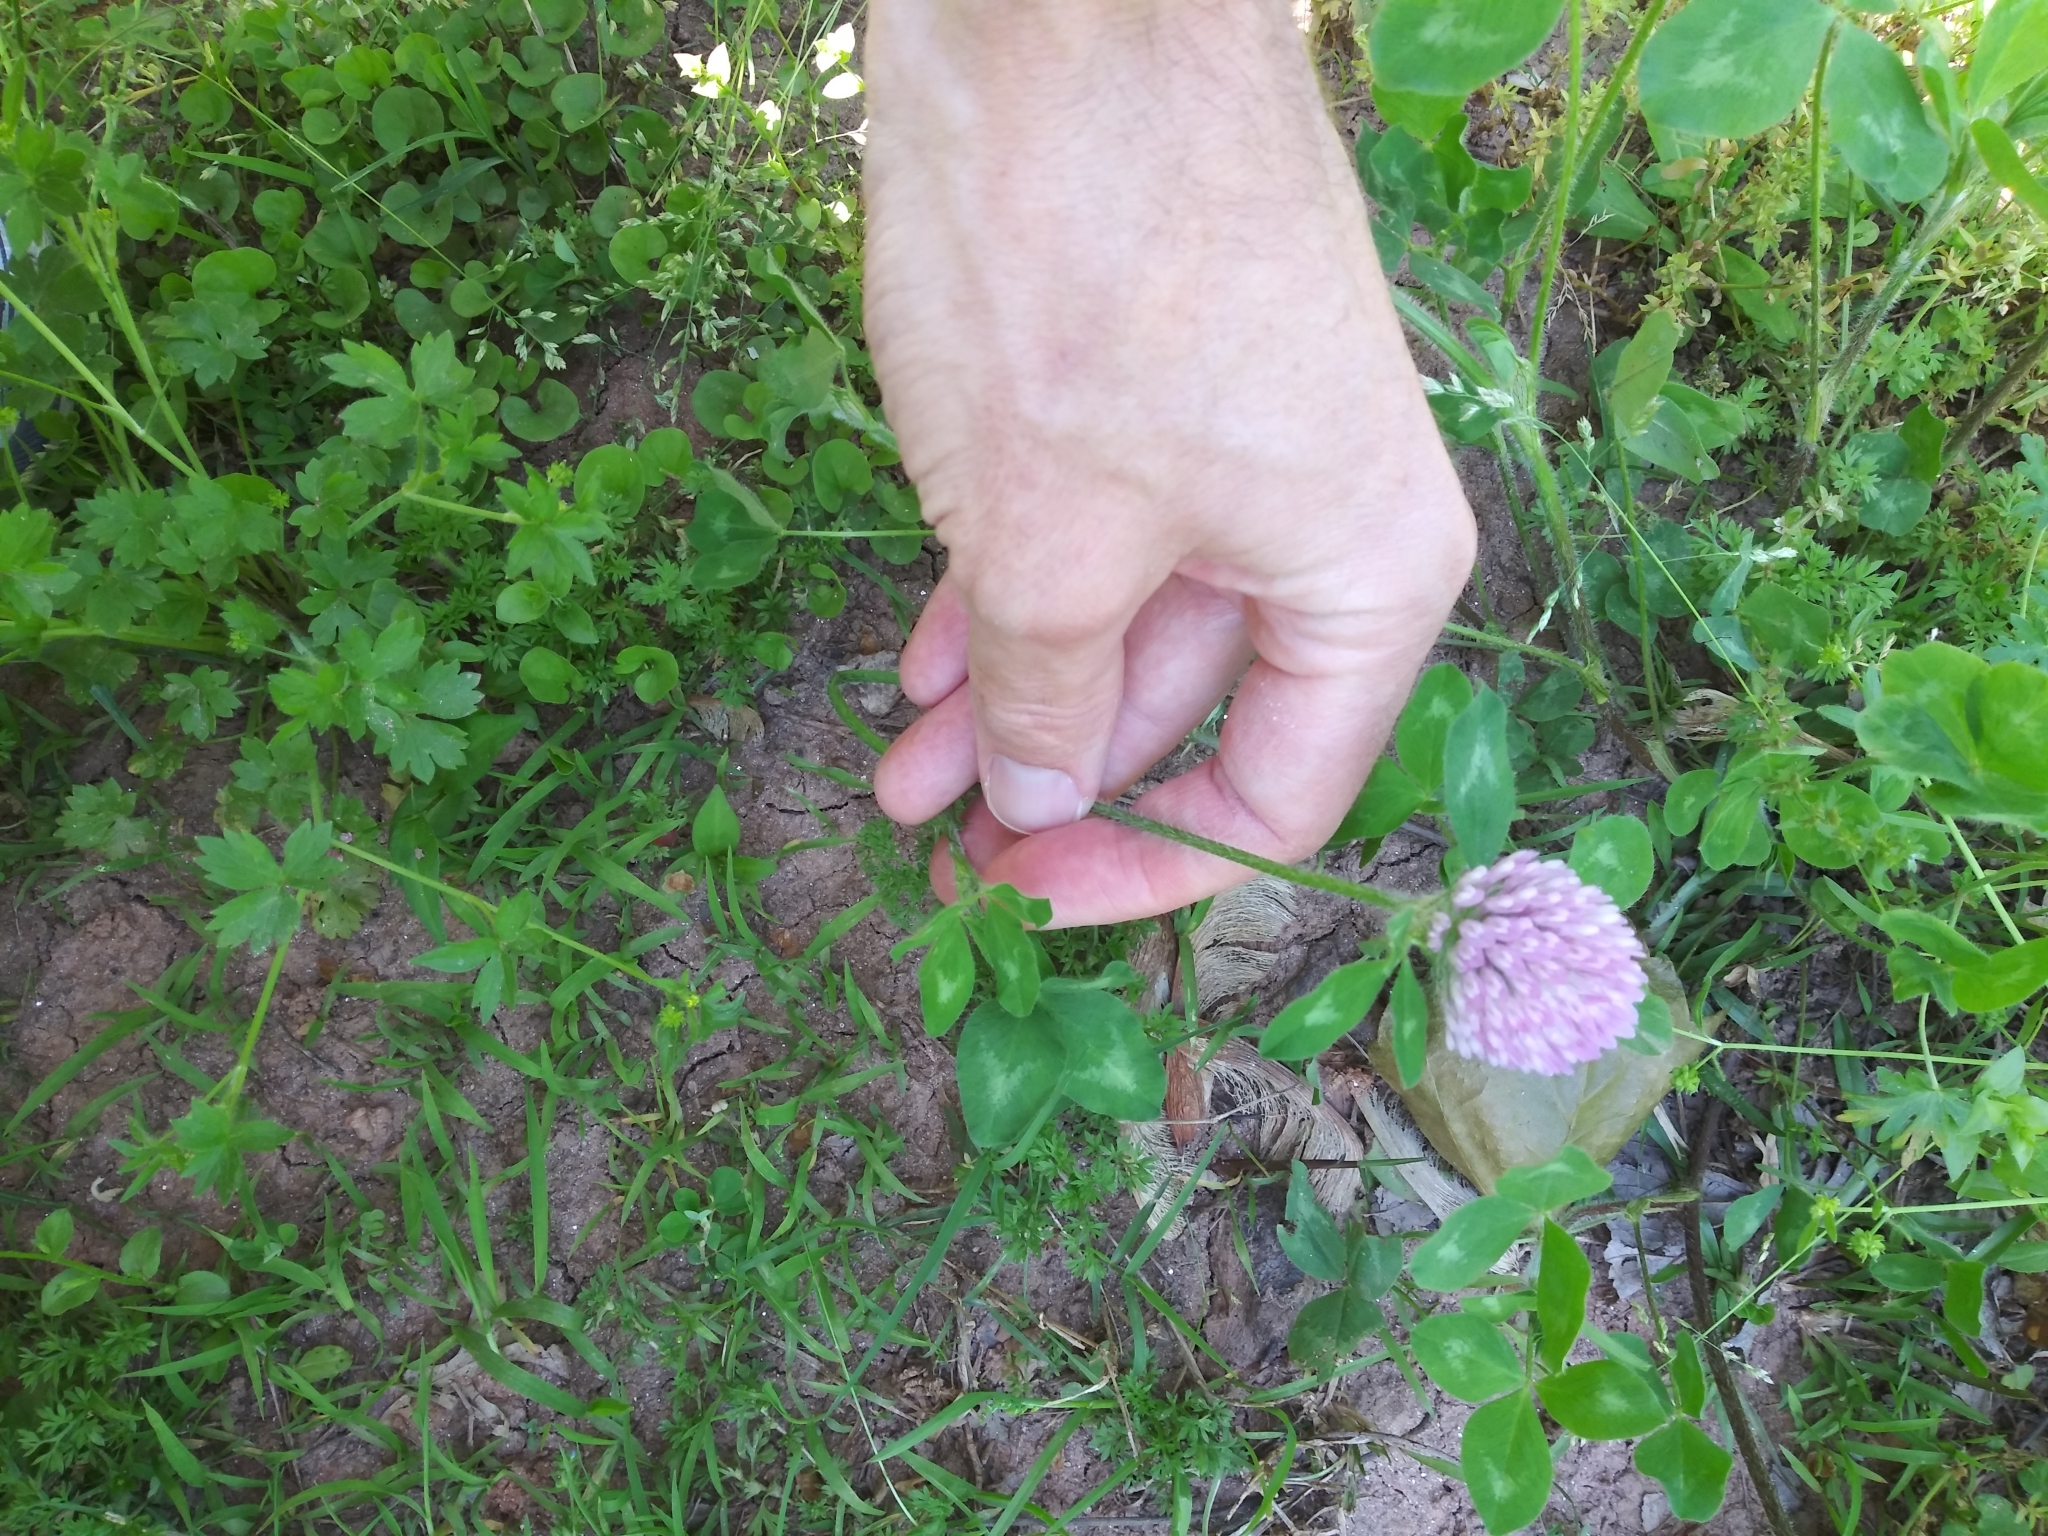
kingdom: Plantae
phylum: Tracheophyta
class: Magnoliopsida
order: Fabales
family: Fabaceae
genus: Trifolium
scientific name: Trifolium pratense
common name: Red clover
